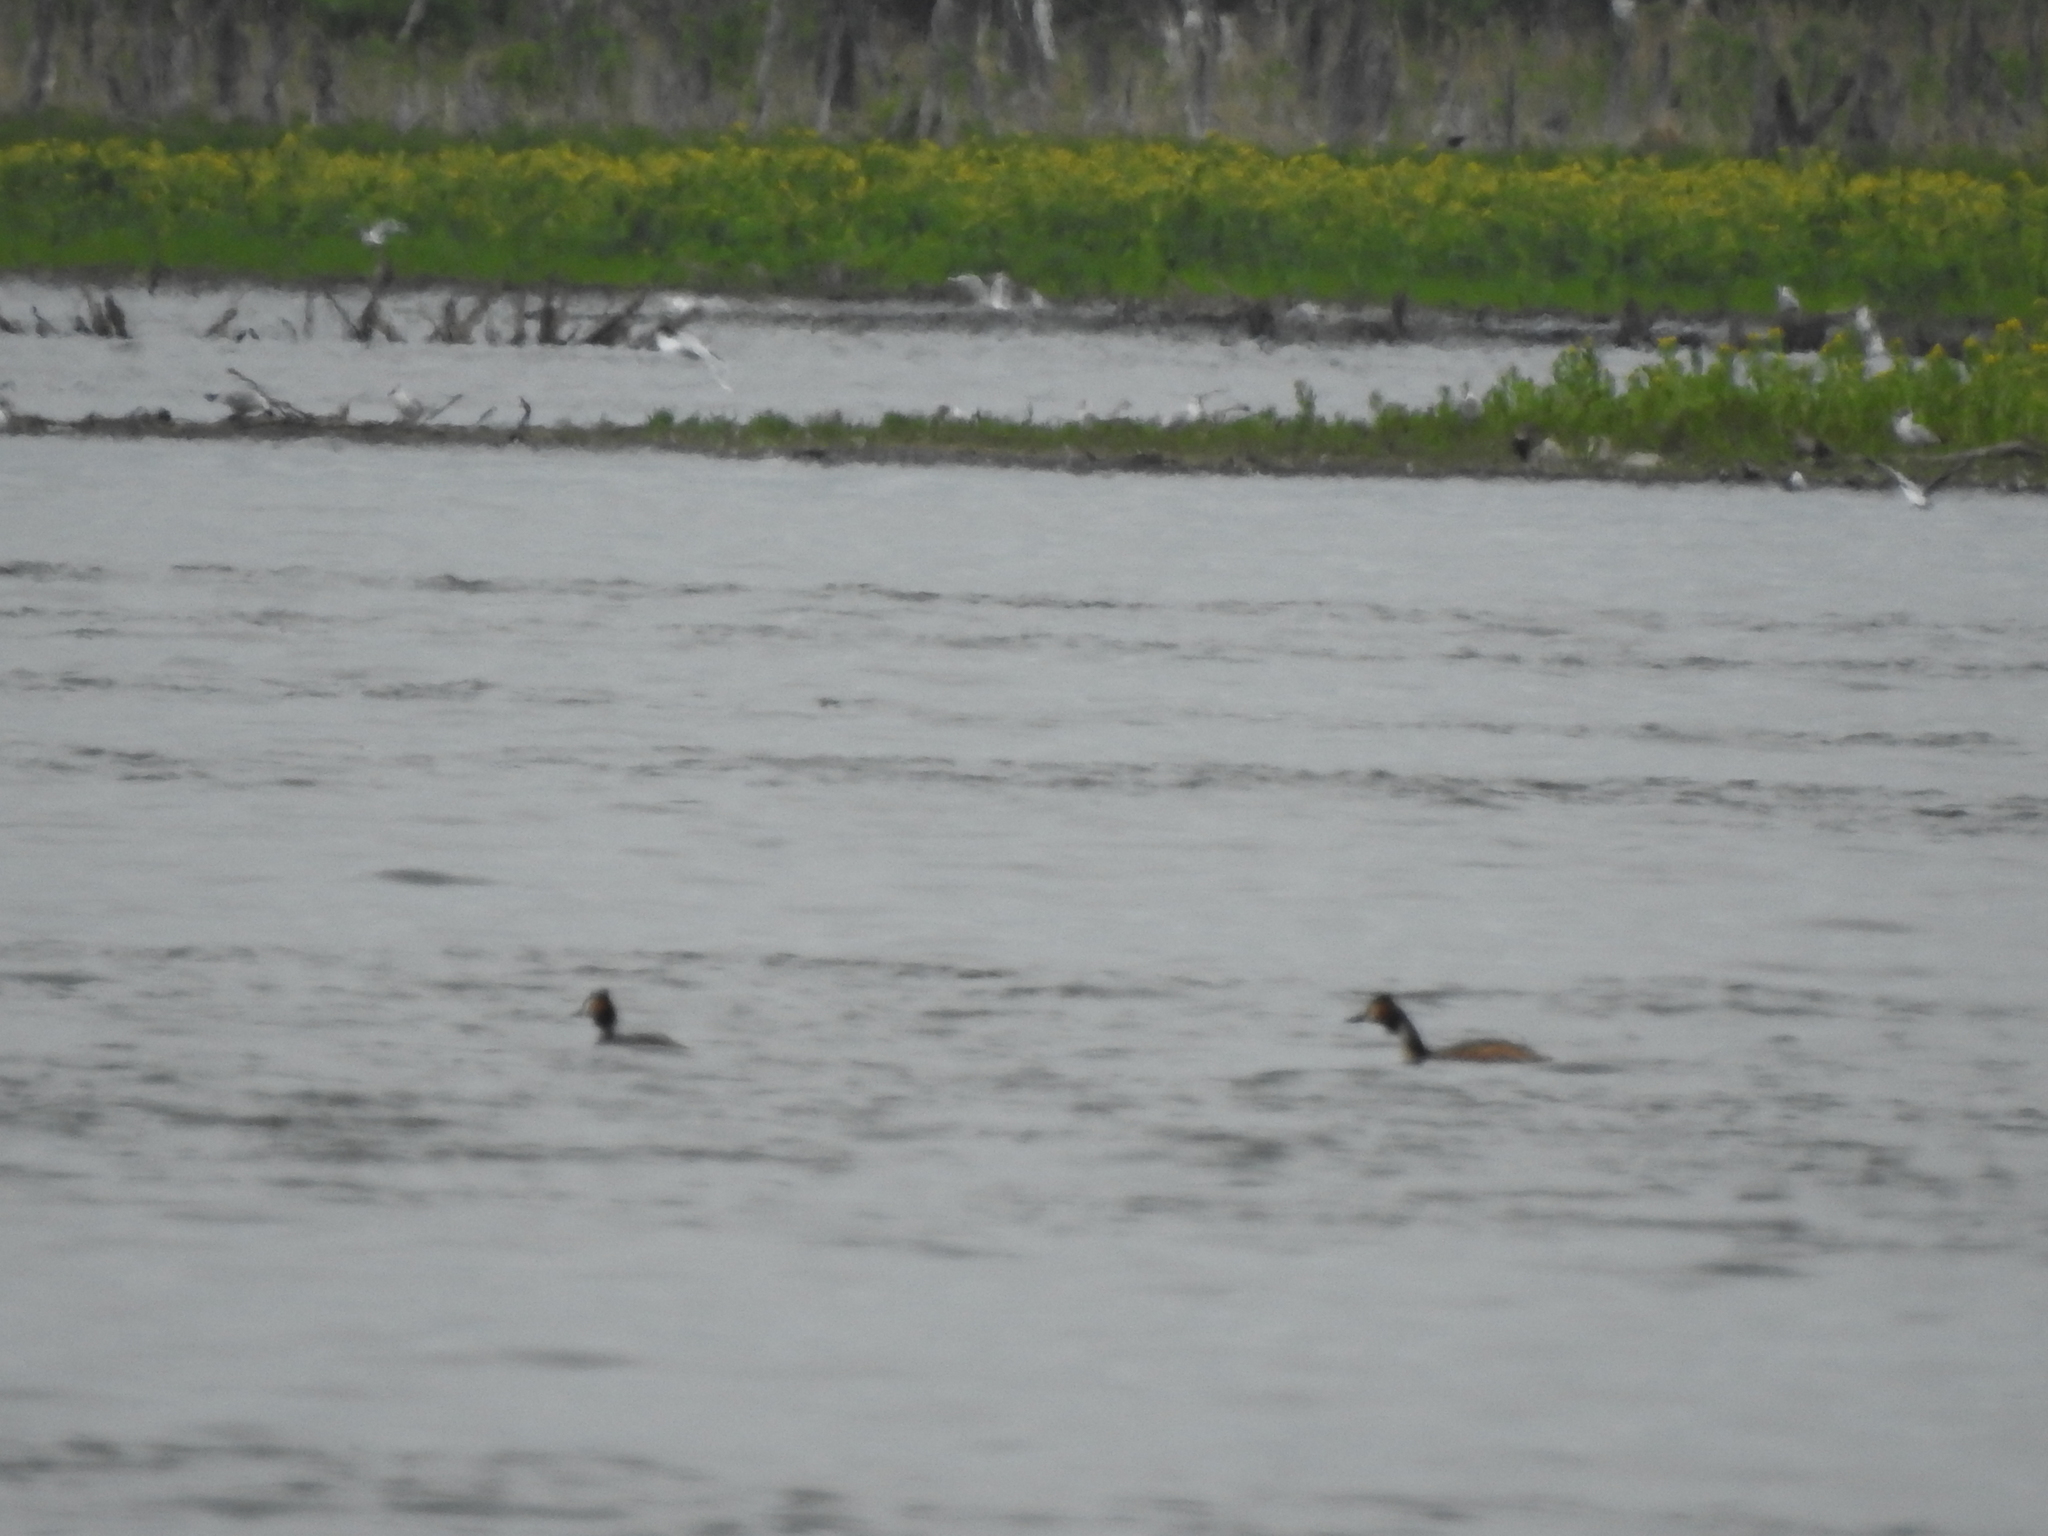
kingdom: Animalia
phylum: Chordata
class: Aves
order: Podicipediformes
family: Podicipedidae
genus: Podiceps
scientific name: Podiceps cristatus
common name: Great crested grebe
